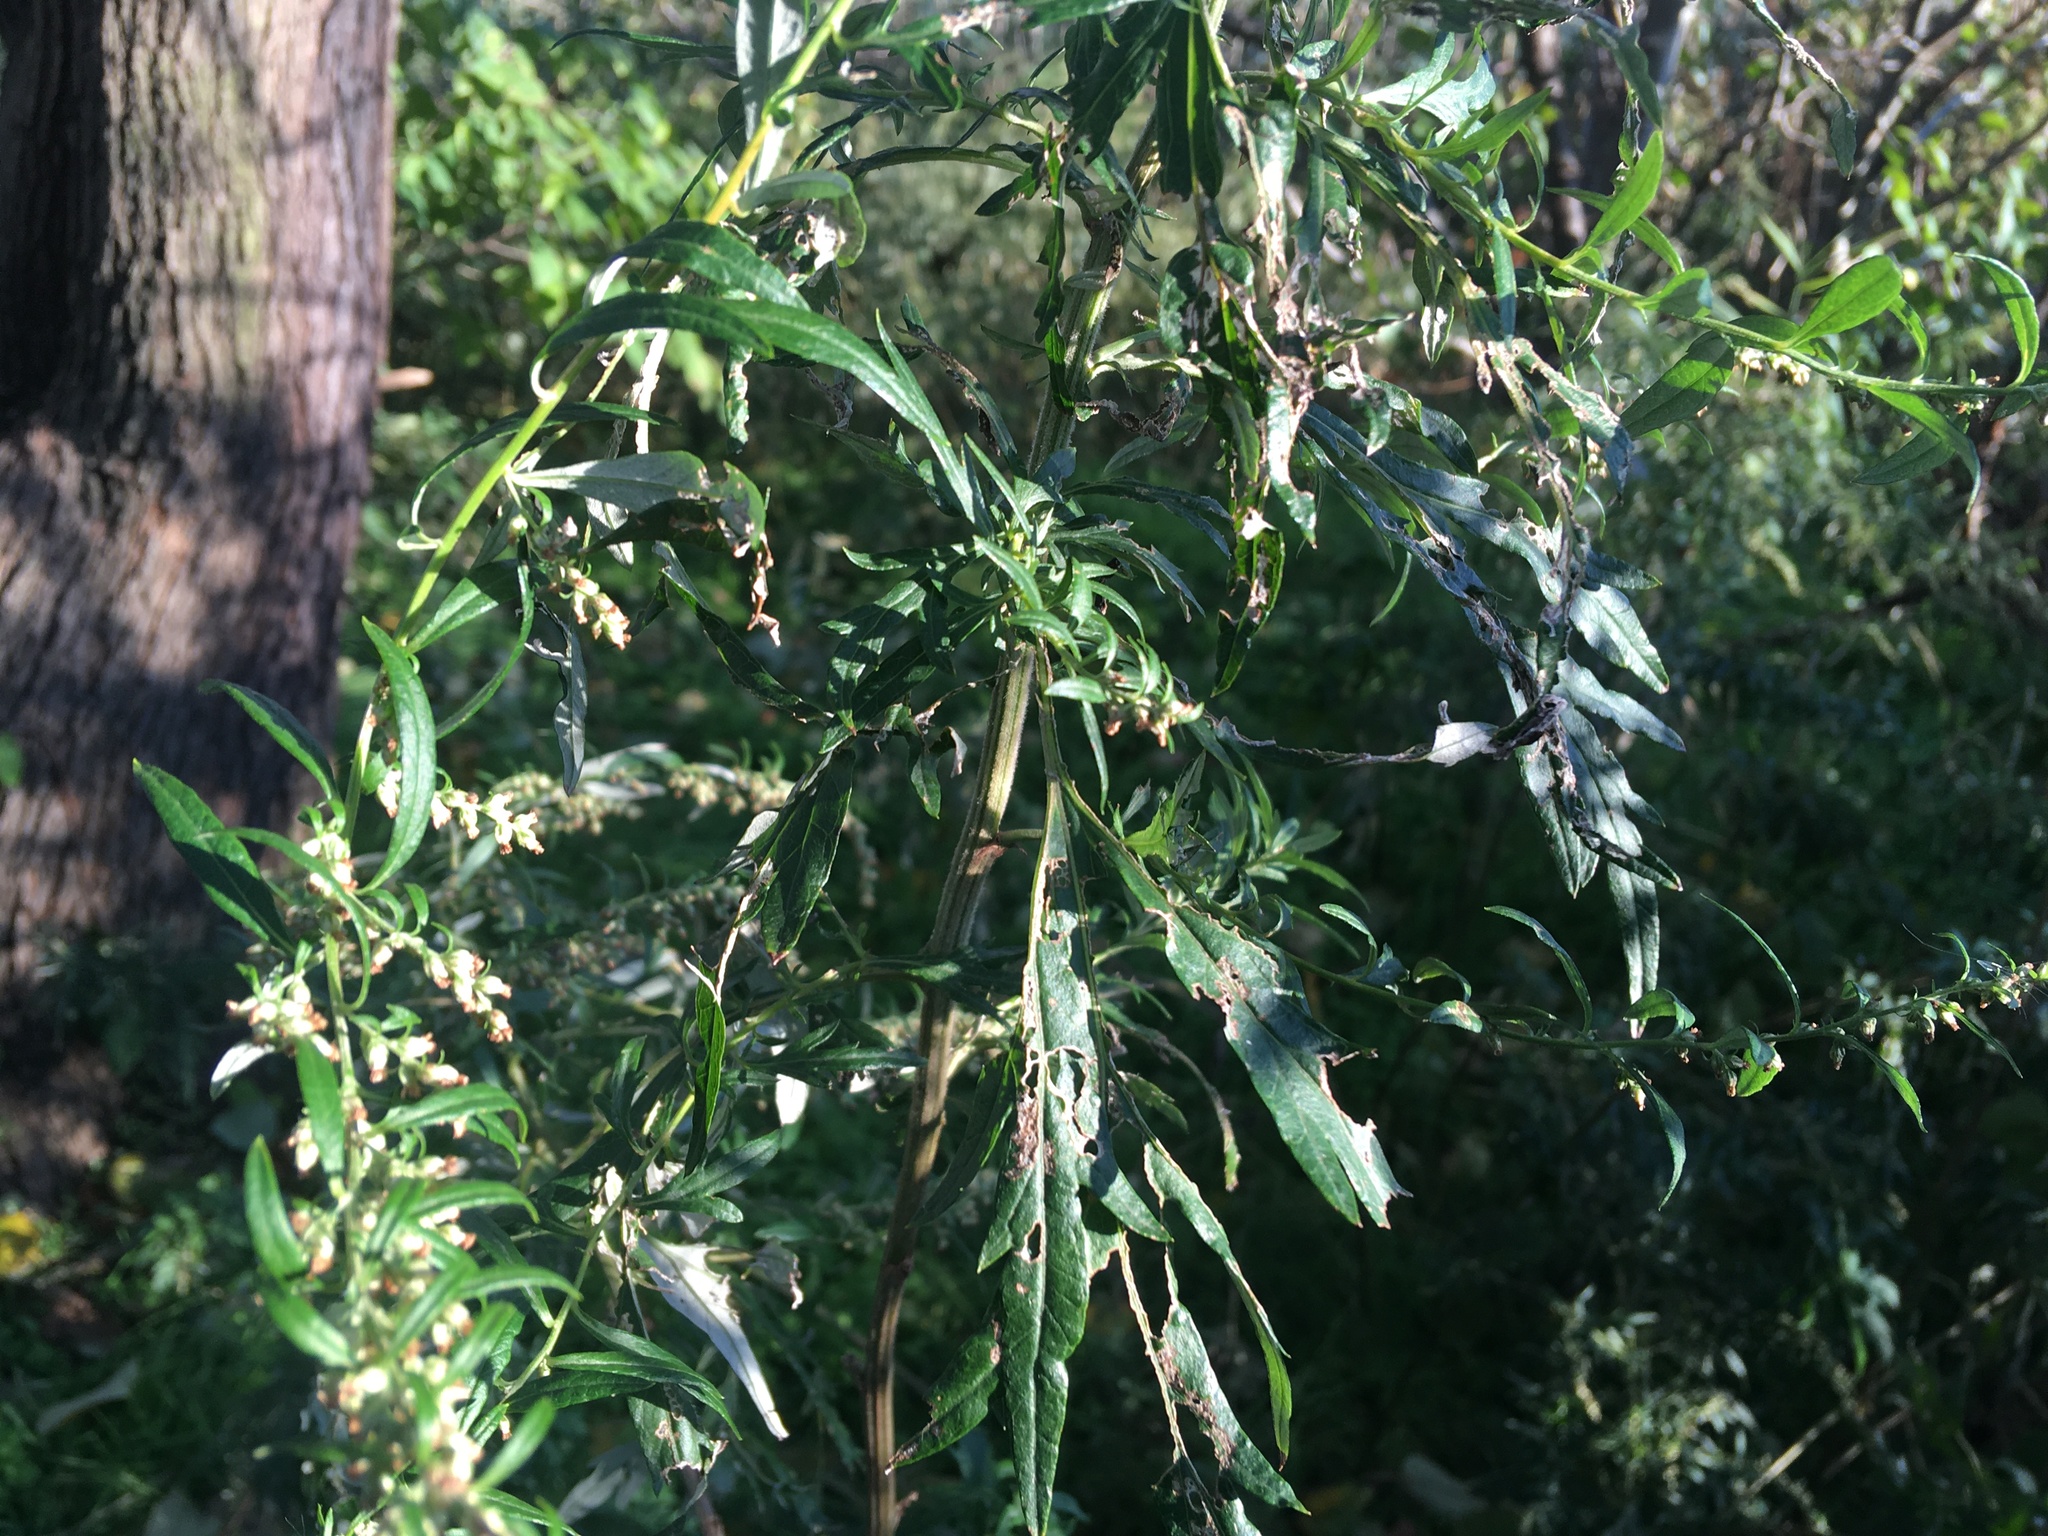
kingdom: Plantae
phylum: Tracheophyta
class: Magnoliopsida
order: Asterales
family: Asteraceae
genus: Artemisia
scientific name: Artemisia vulgaris
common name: Mugwort
